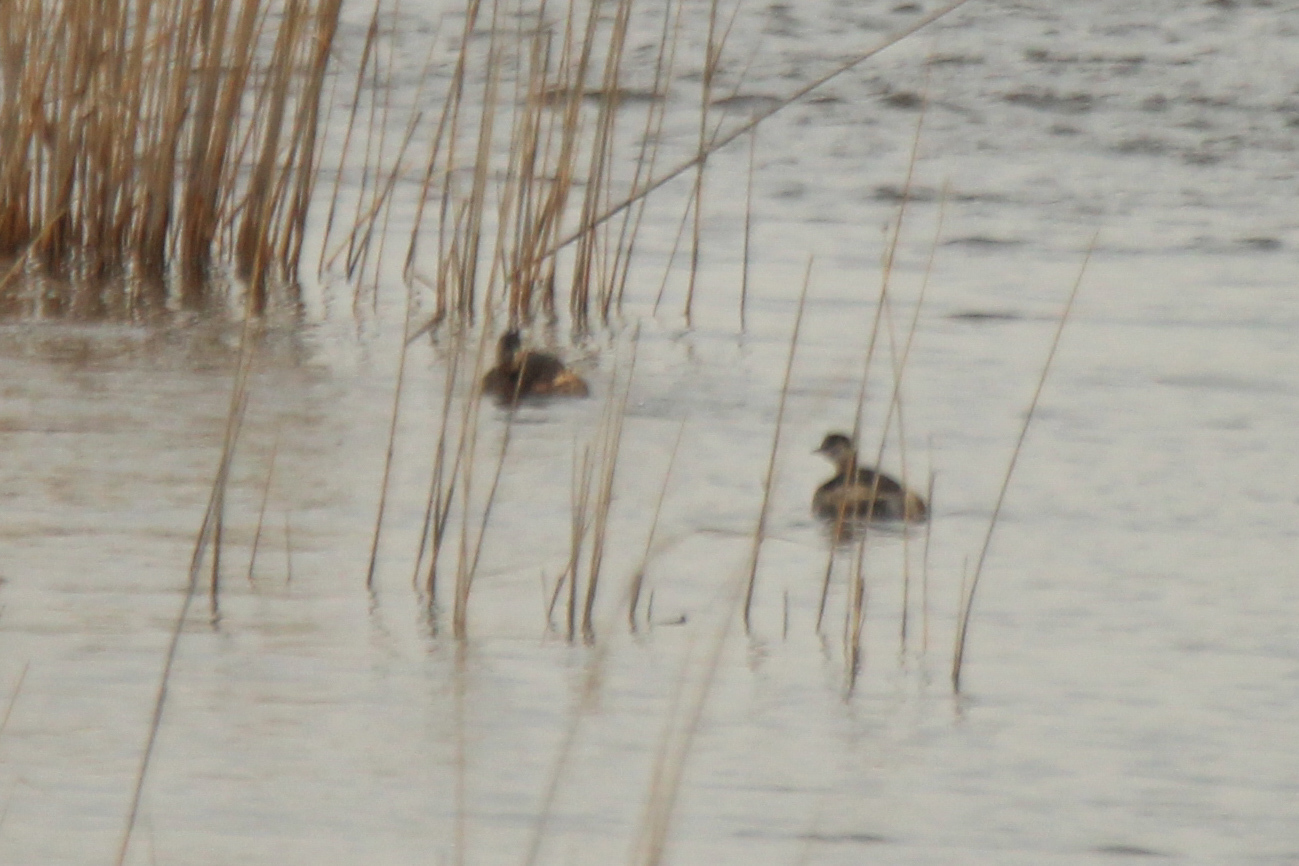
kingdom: Animalia
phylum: Chordata
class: Aves
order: Podicipediformes
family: Podicipedidae
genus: Tachybaptus
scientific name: Tachybaptus ruficollis
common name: Little grebe
